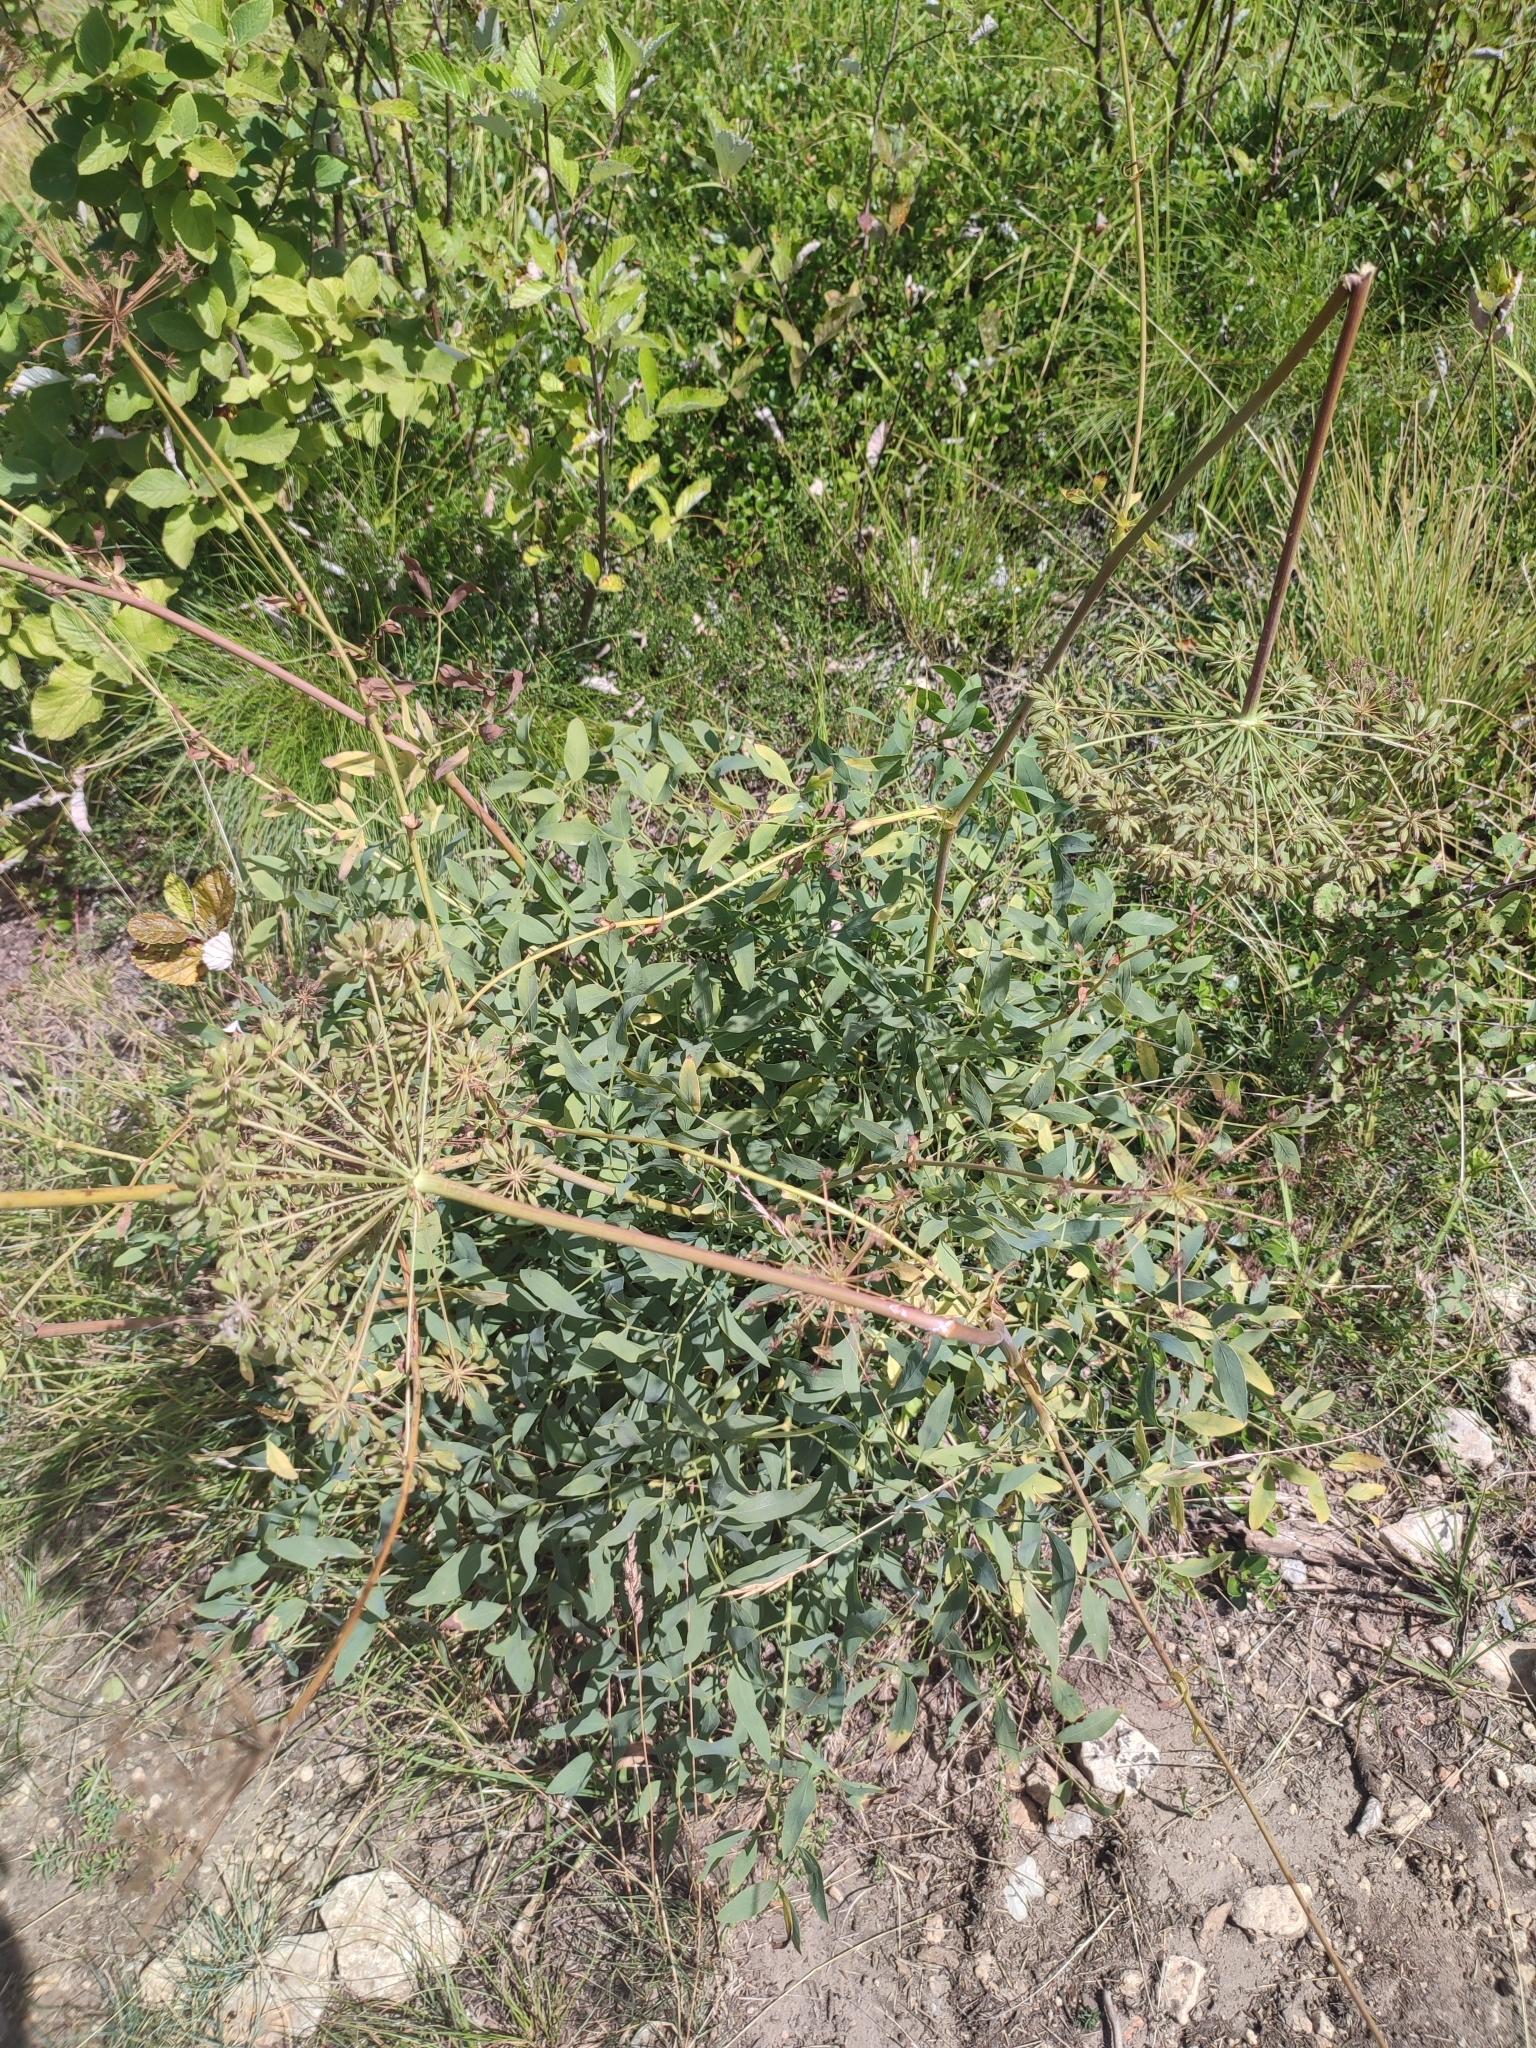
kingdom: Plantae
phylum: Tracheophyta
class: Magnoliopsida
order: Apiales
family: Apiaceae
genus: Siler
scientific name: Siler montanum
